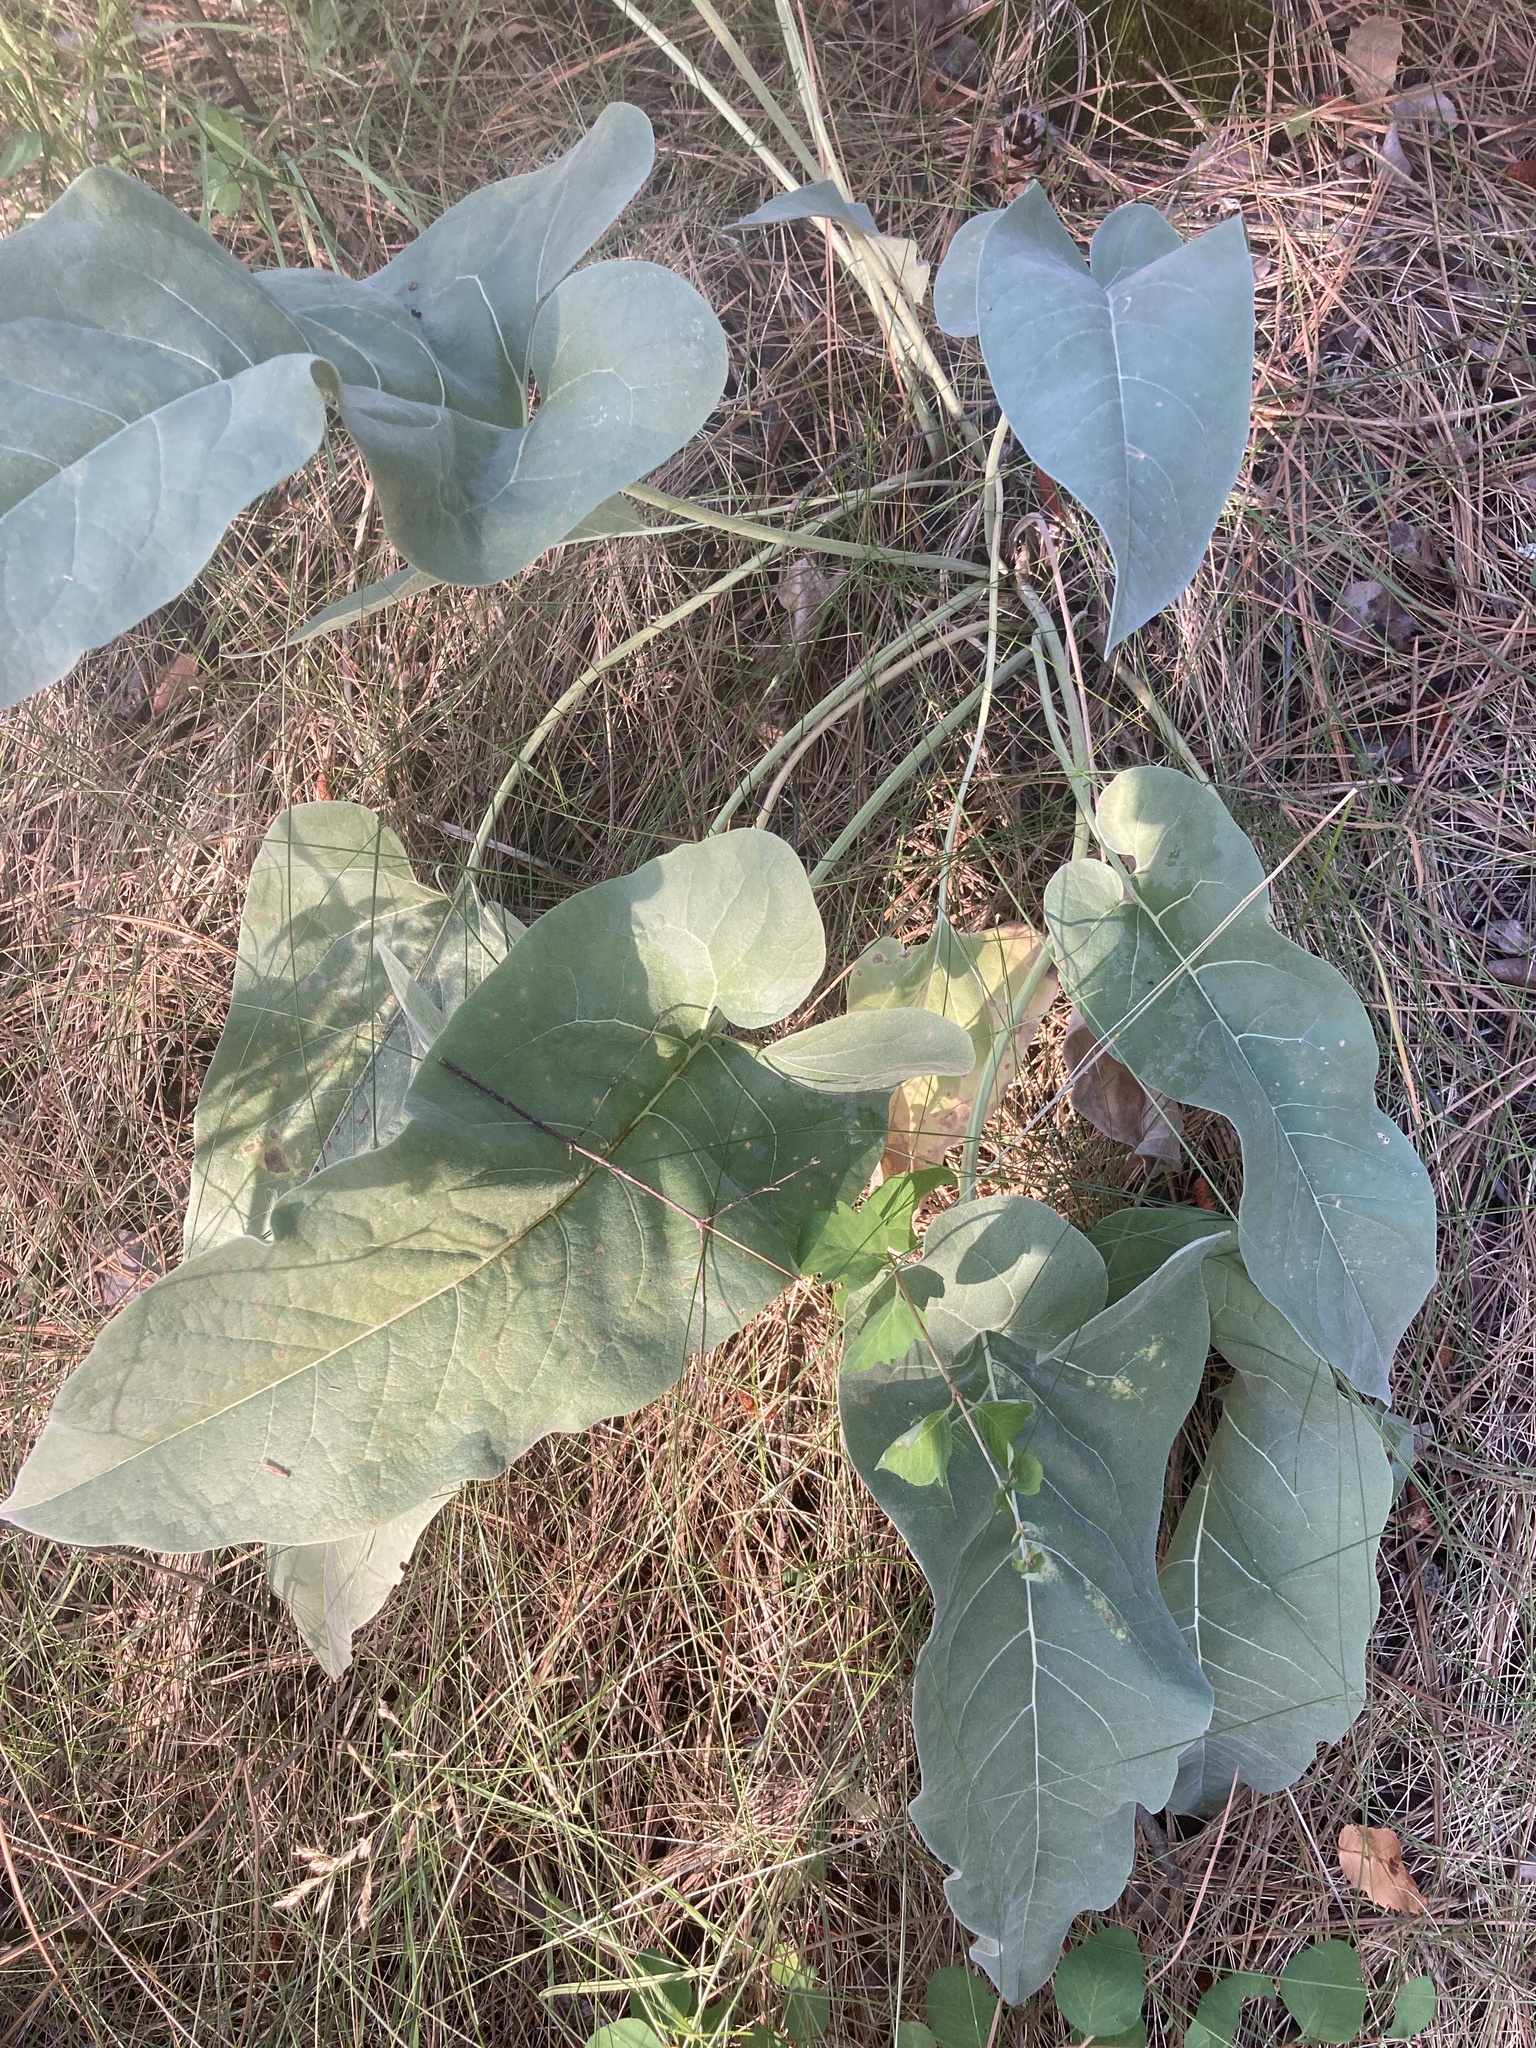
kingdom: Plantae
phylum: Tracheophyta
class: Magnoliopsida
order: Asterales
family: Asteraceae
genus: Wyethia
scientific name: Wyethia sagittata
